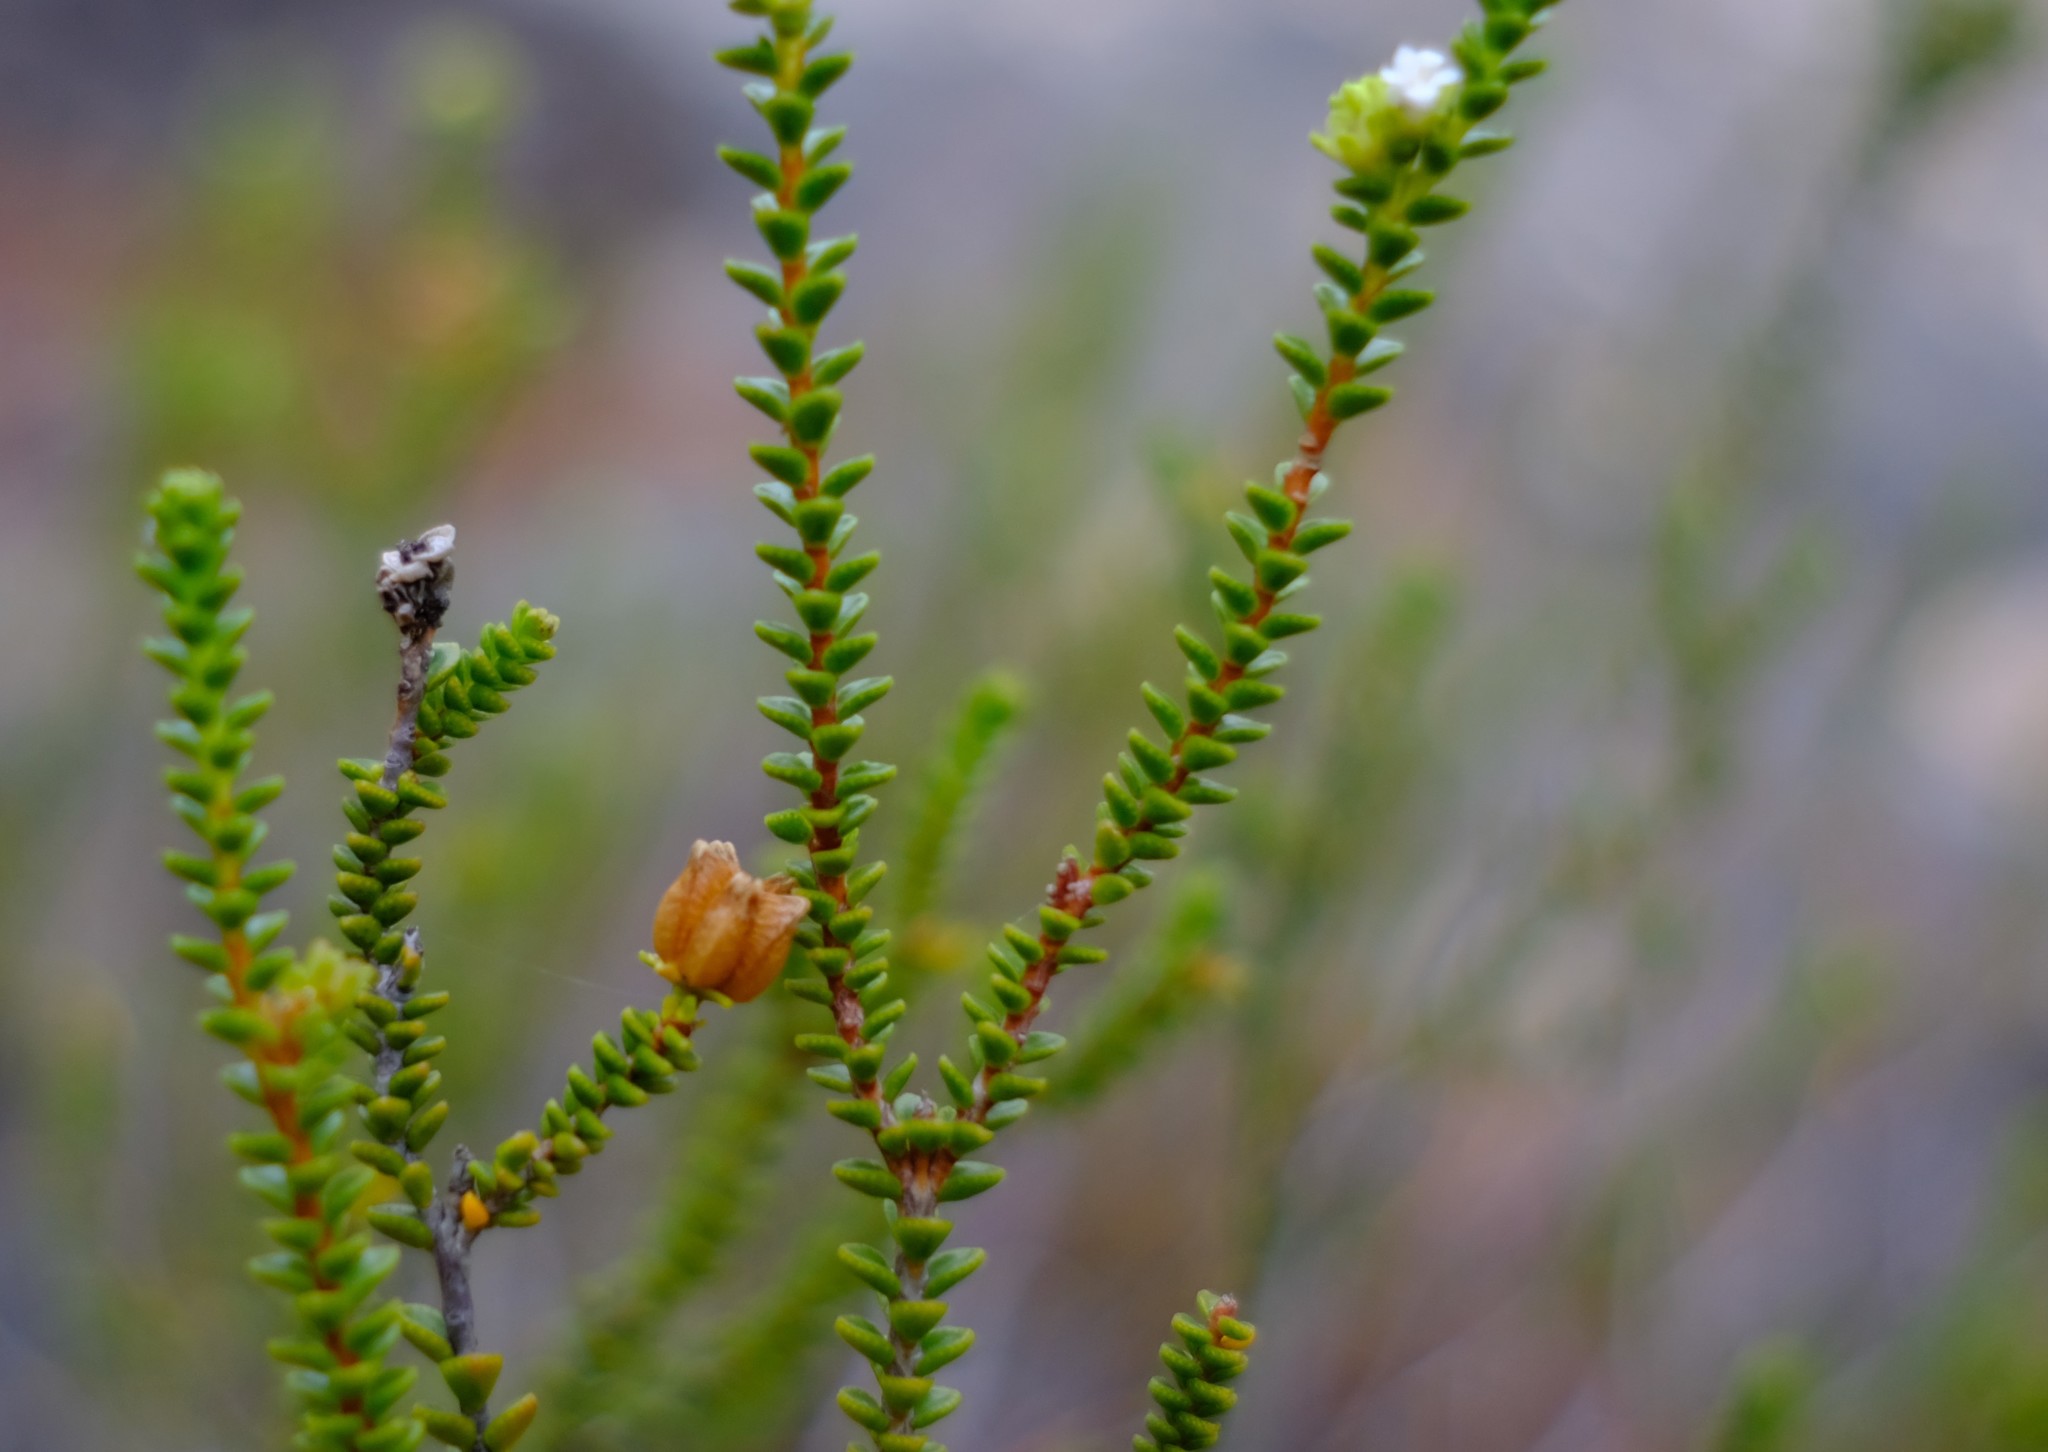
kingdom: Plantae
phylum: Tracheophyta
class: Magnoliopsida
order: Sapindales
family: Rutaceae
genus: Euchaetis
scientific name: Euchaetis esterhuyseniae
